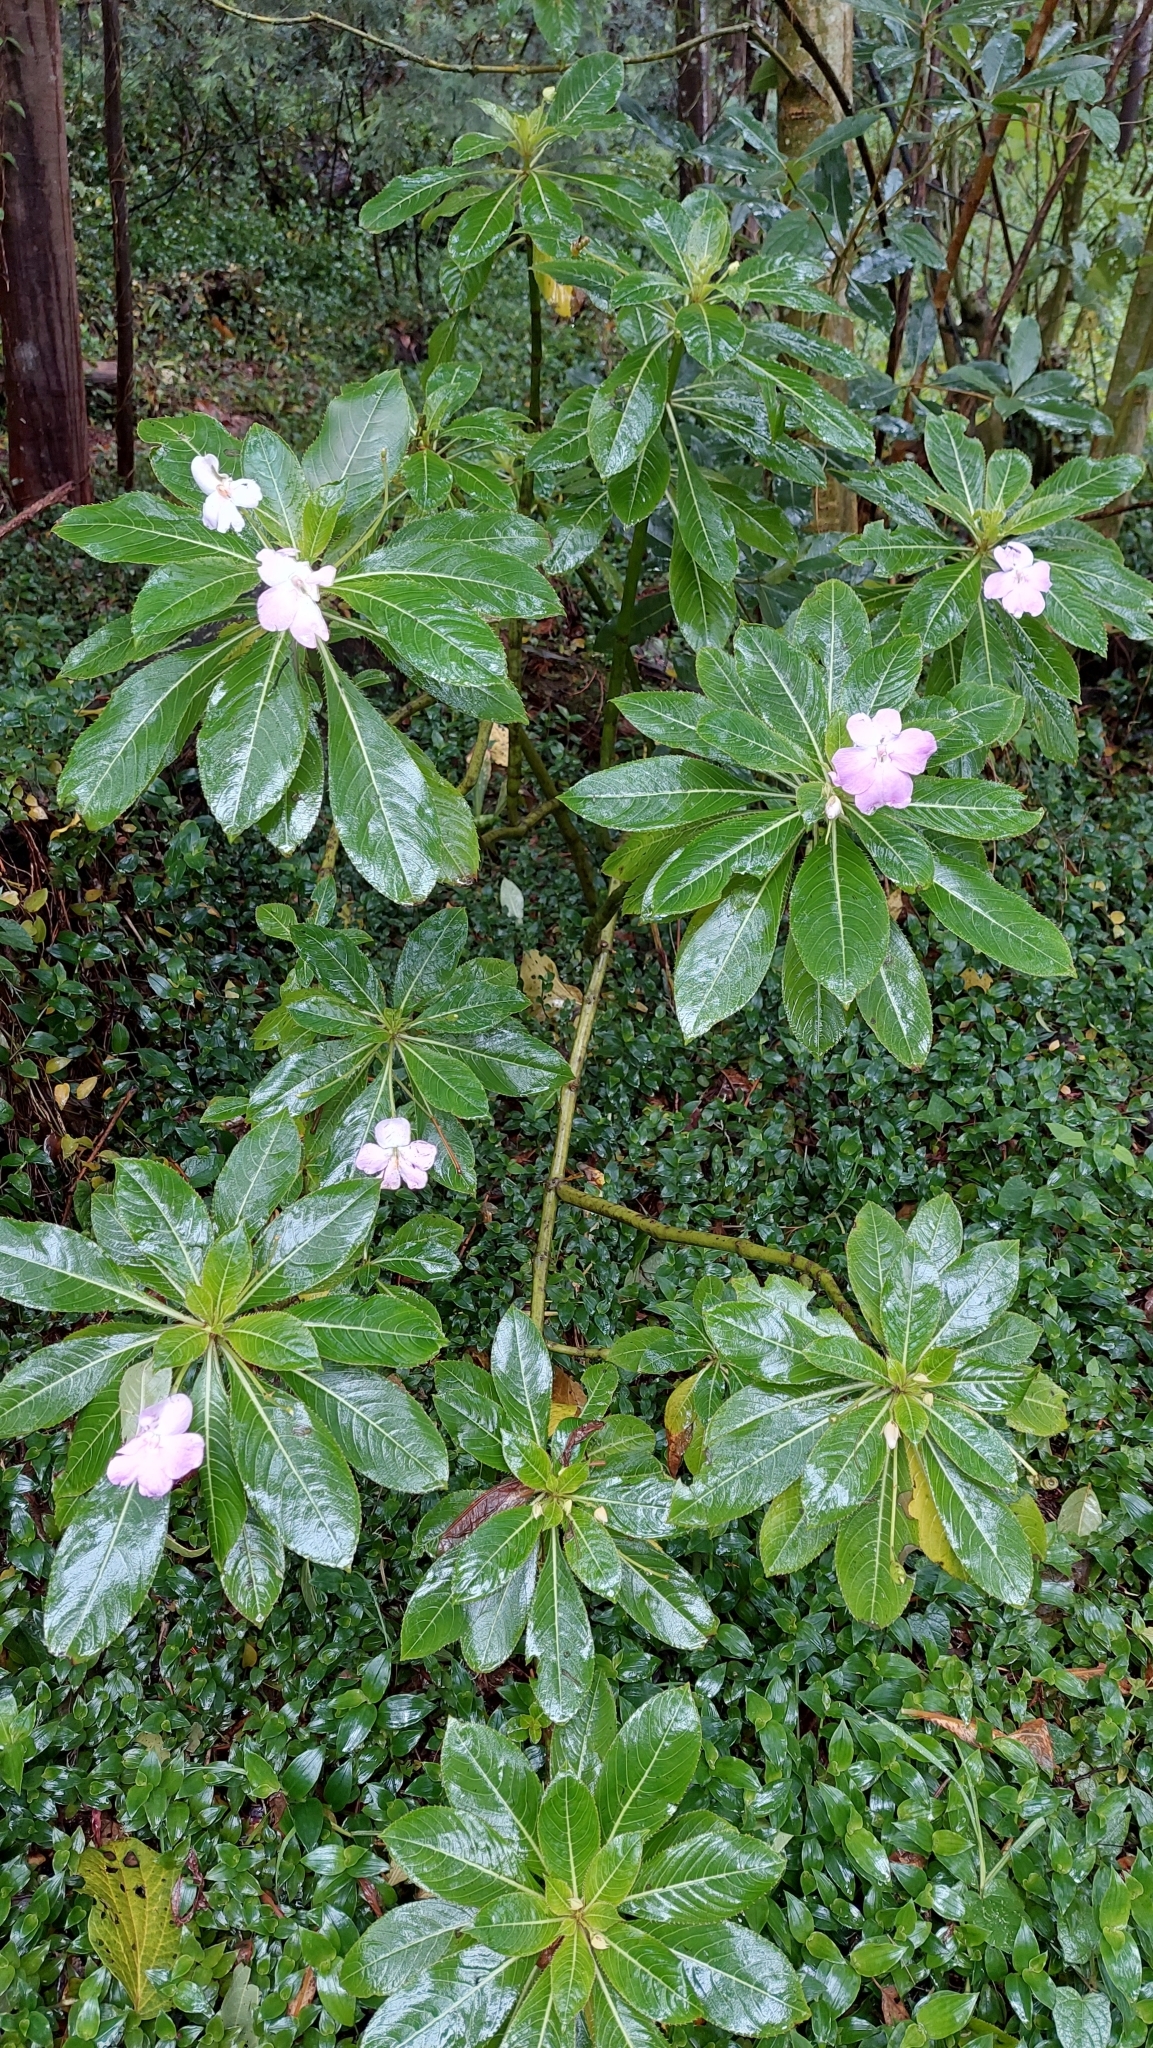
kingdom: Plantae
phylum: Tracheophyta
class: Magnoliopsida
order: Ericales
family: Balsaminaceae
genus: Impatiens
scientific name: Impatiens sodenii
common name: Oliver's touch-me-not
